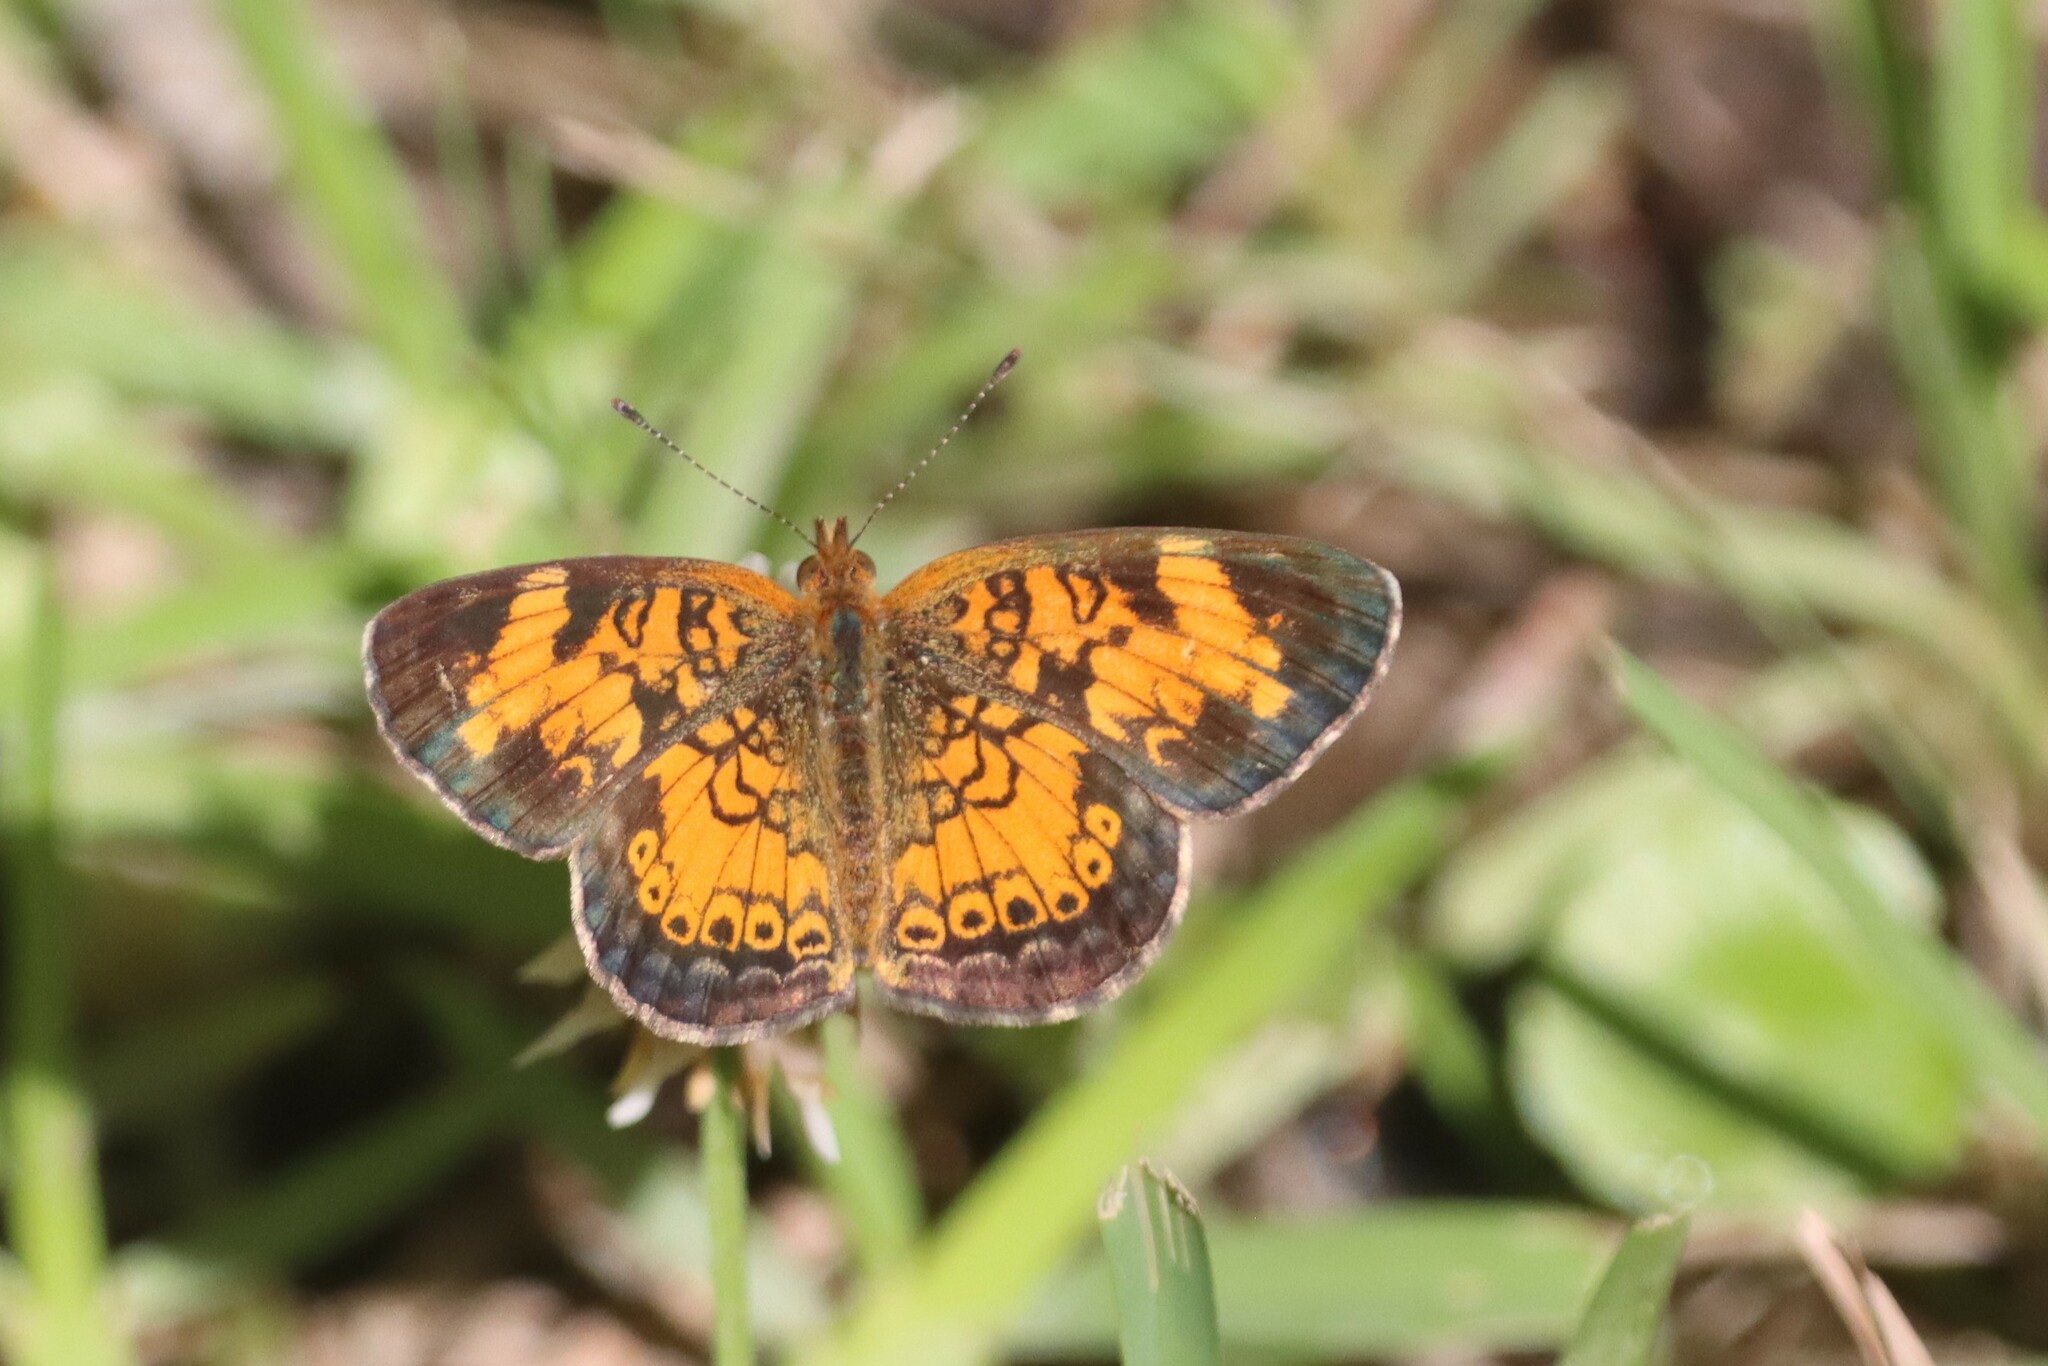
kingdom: Animalia
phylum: Arthropoda
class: Insecta
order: Lepidoptera
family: Nymphalidae
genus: Phyciodes
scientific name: Phyciodes tharos
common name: Pearl crescent
